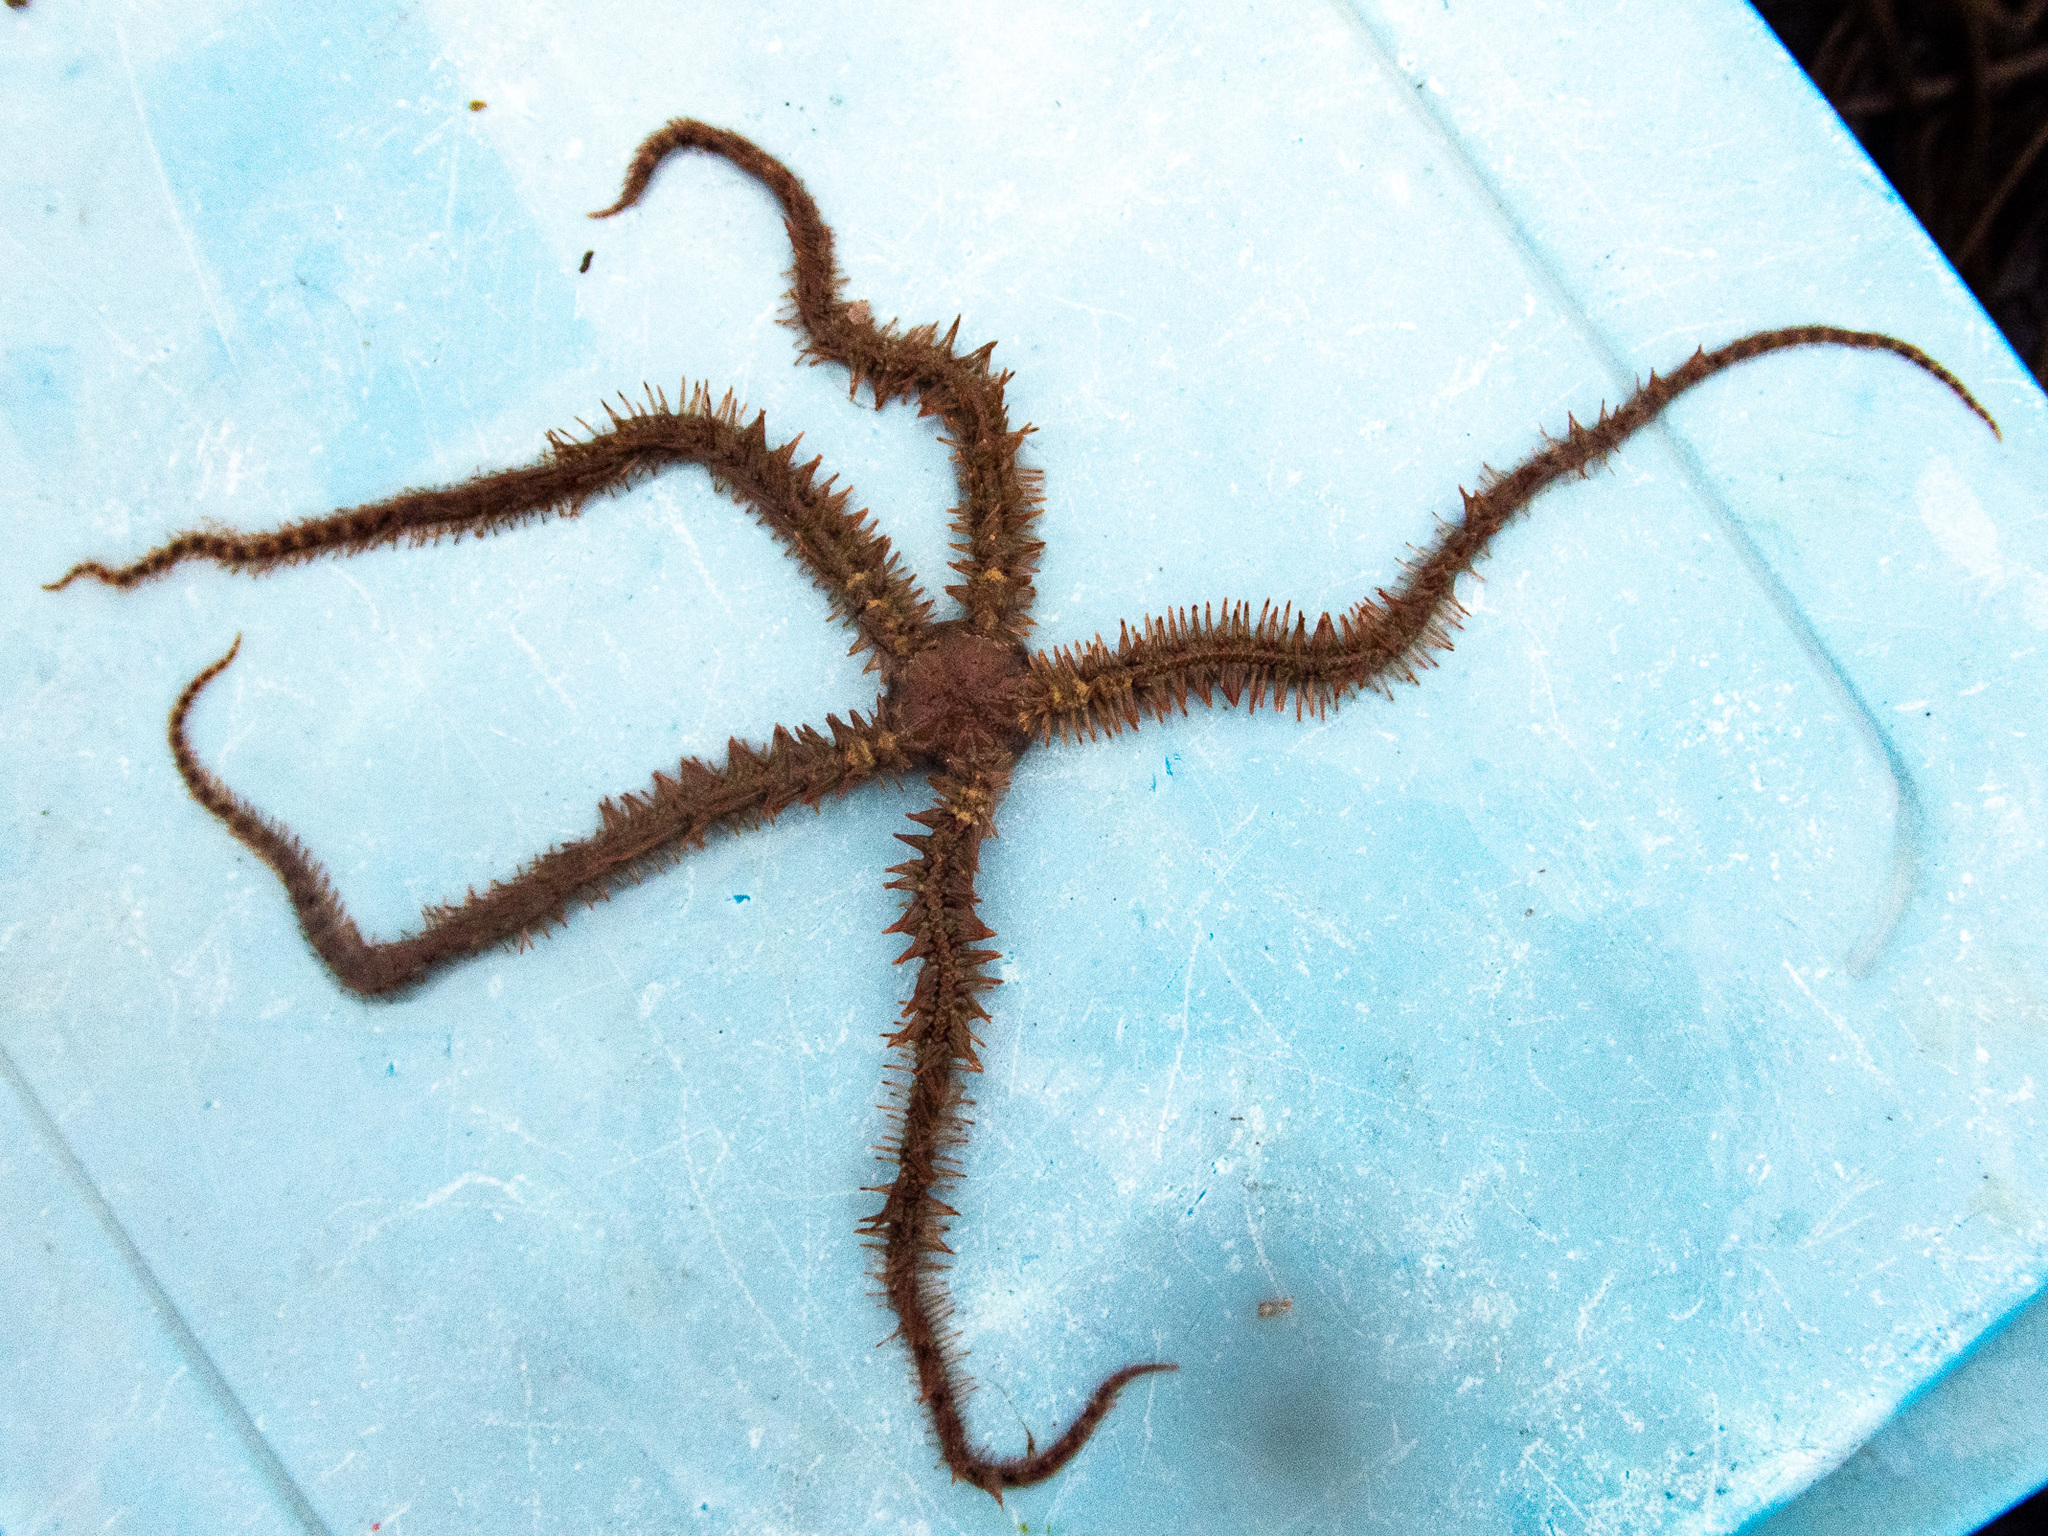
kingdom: Animalia
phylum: Echinodermata
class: Ophiuroidea
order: Amphilepidida
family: Ophiotrichidae
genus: Ophiothrix
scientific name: Ophiothrix fragilis
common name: Common brittlestar
